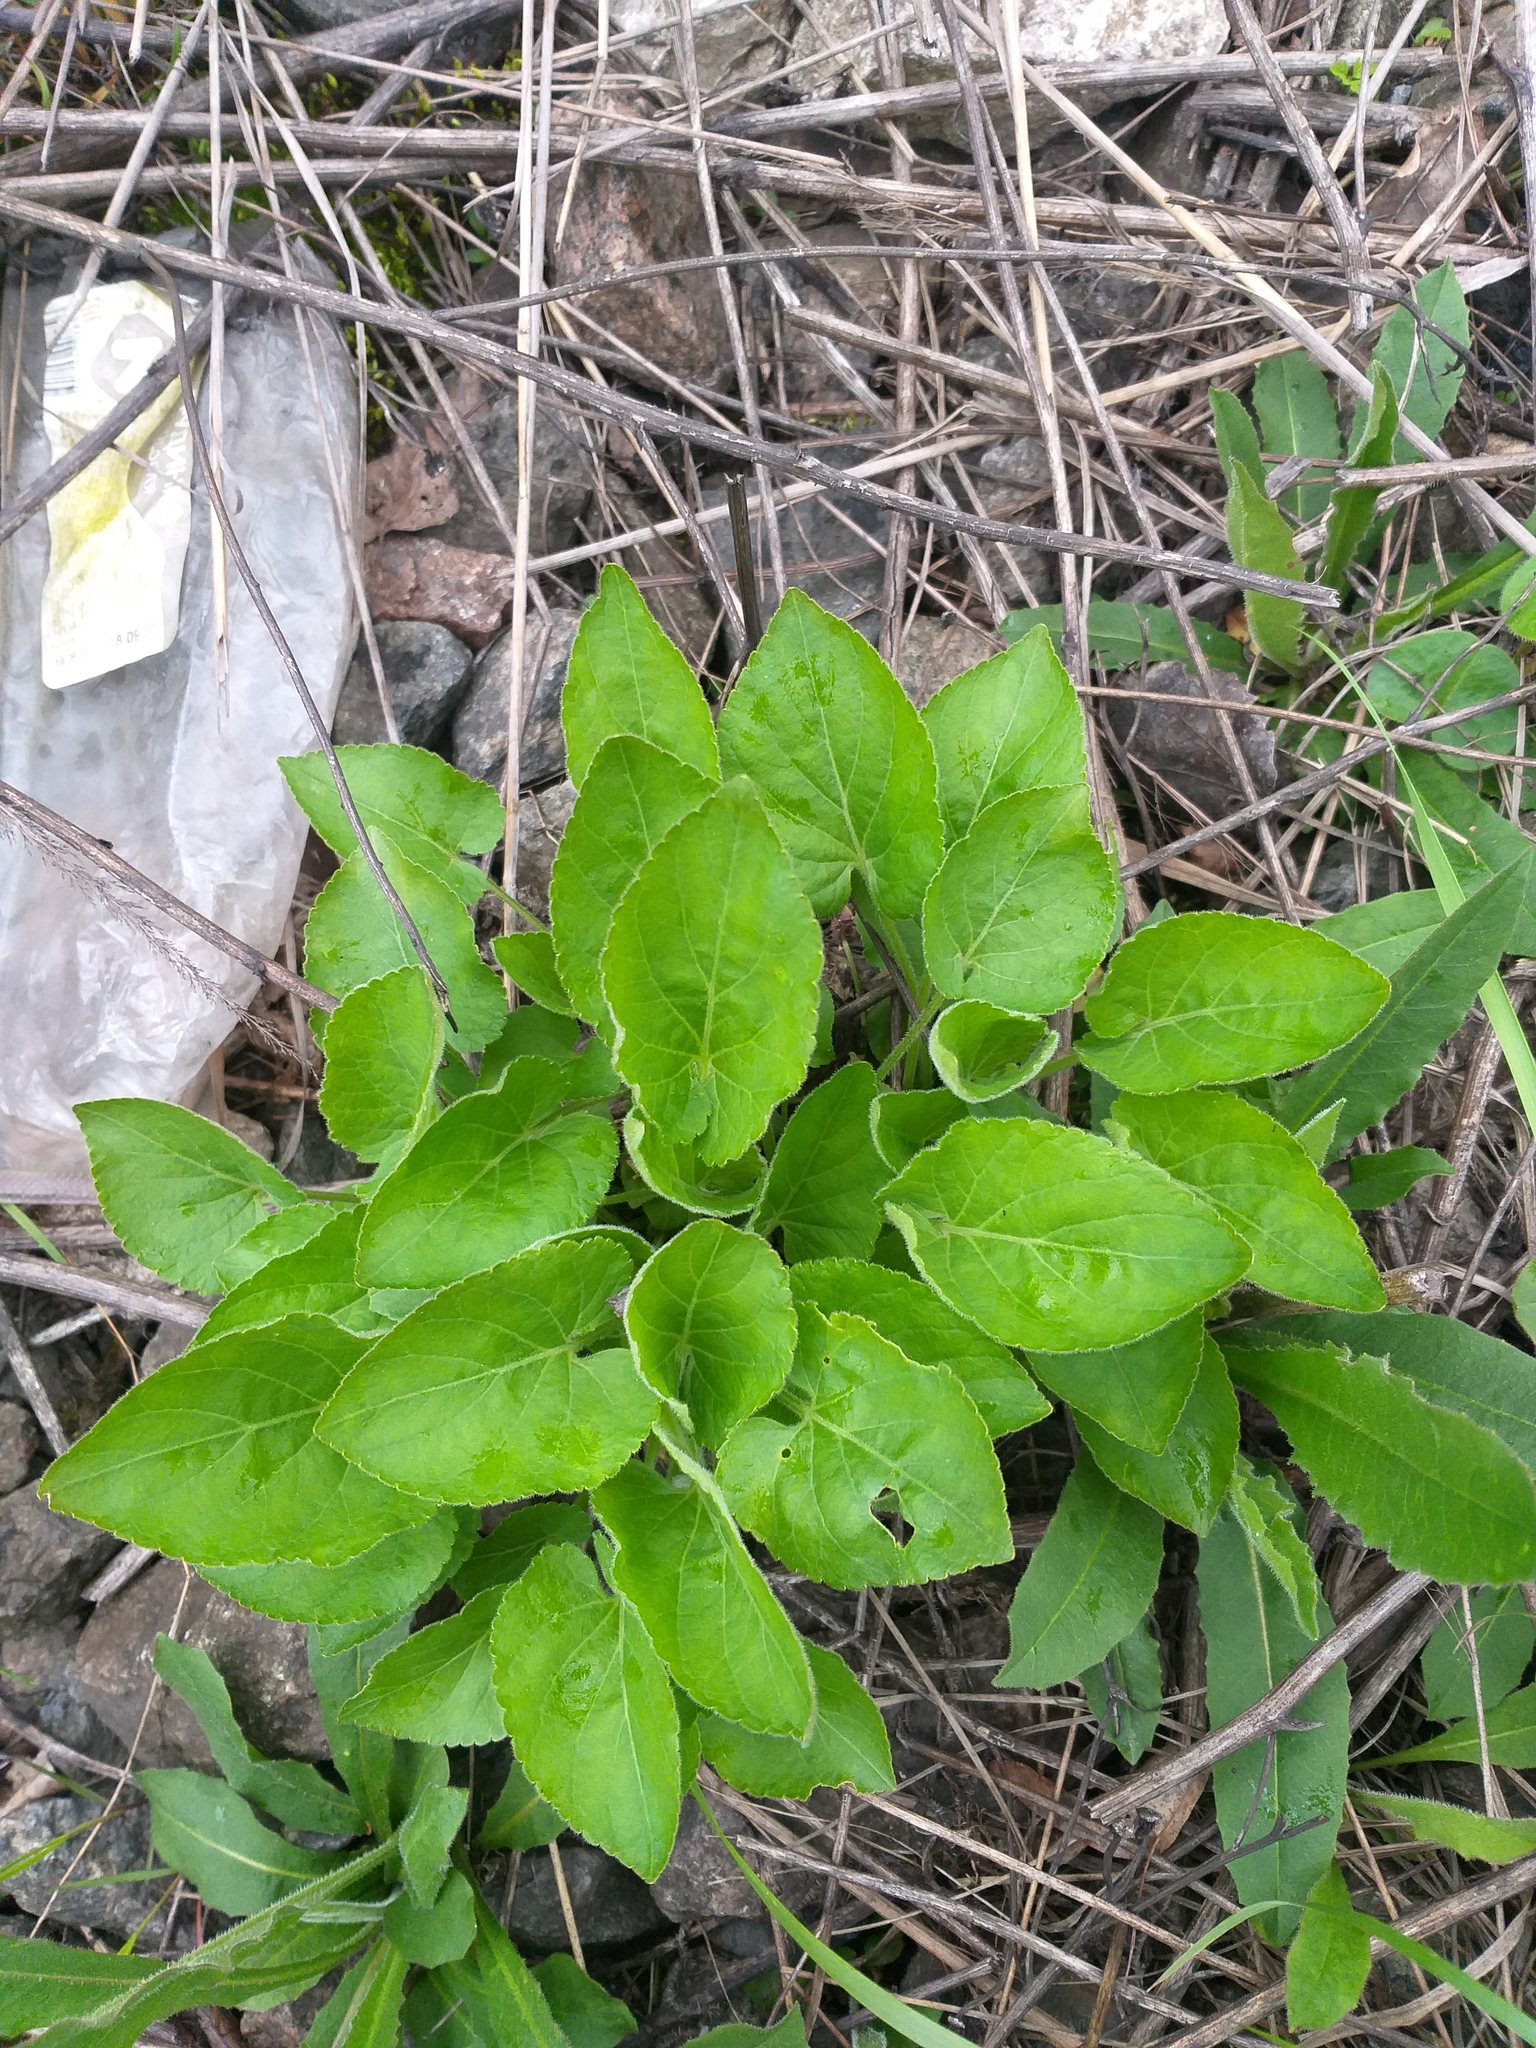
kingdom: Plantae
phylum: Tracheophyta
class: Magnoliopsida
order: Malpighiales
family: Violaceae
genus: Viola
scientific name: Viola hirta
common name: Hairy violet
